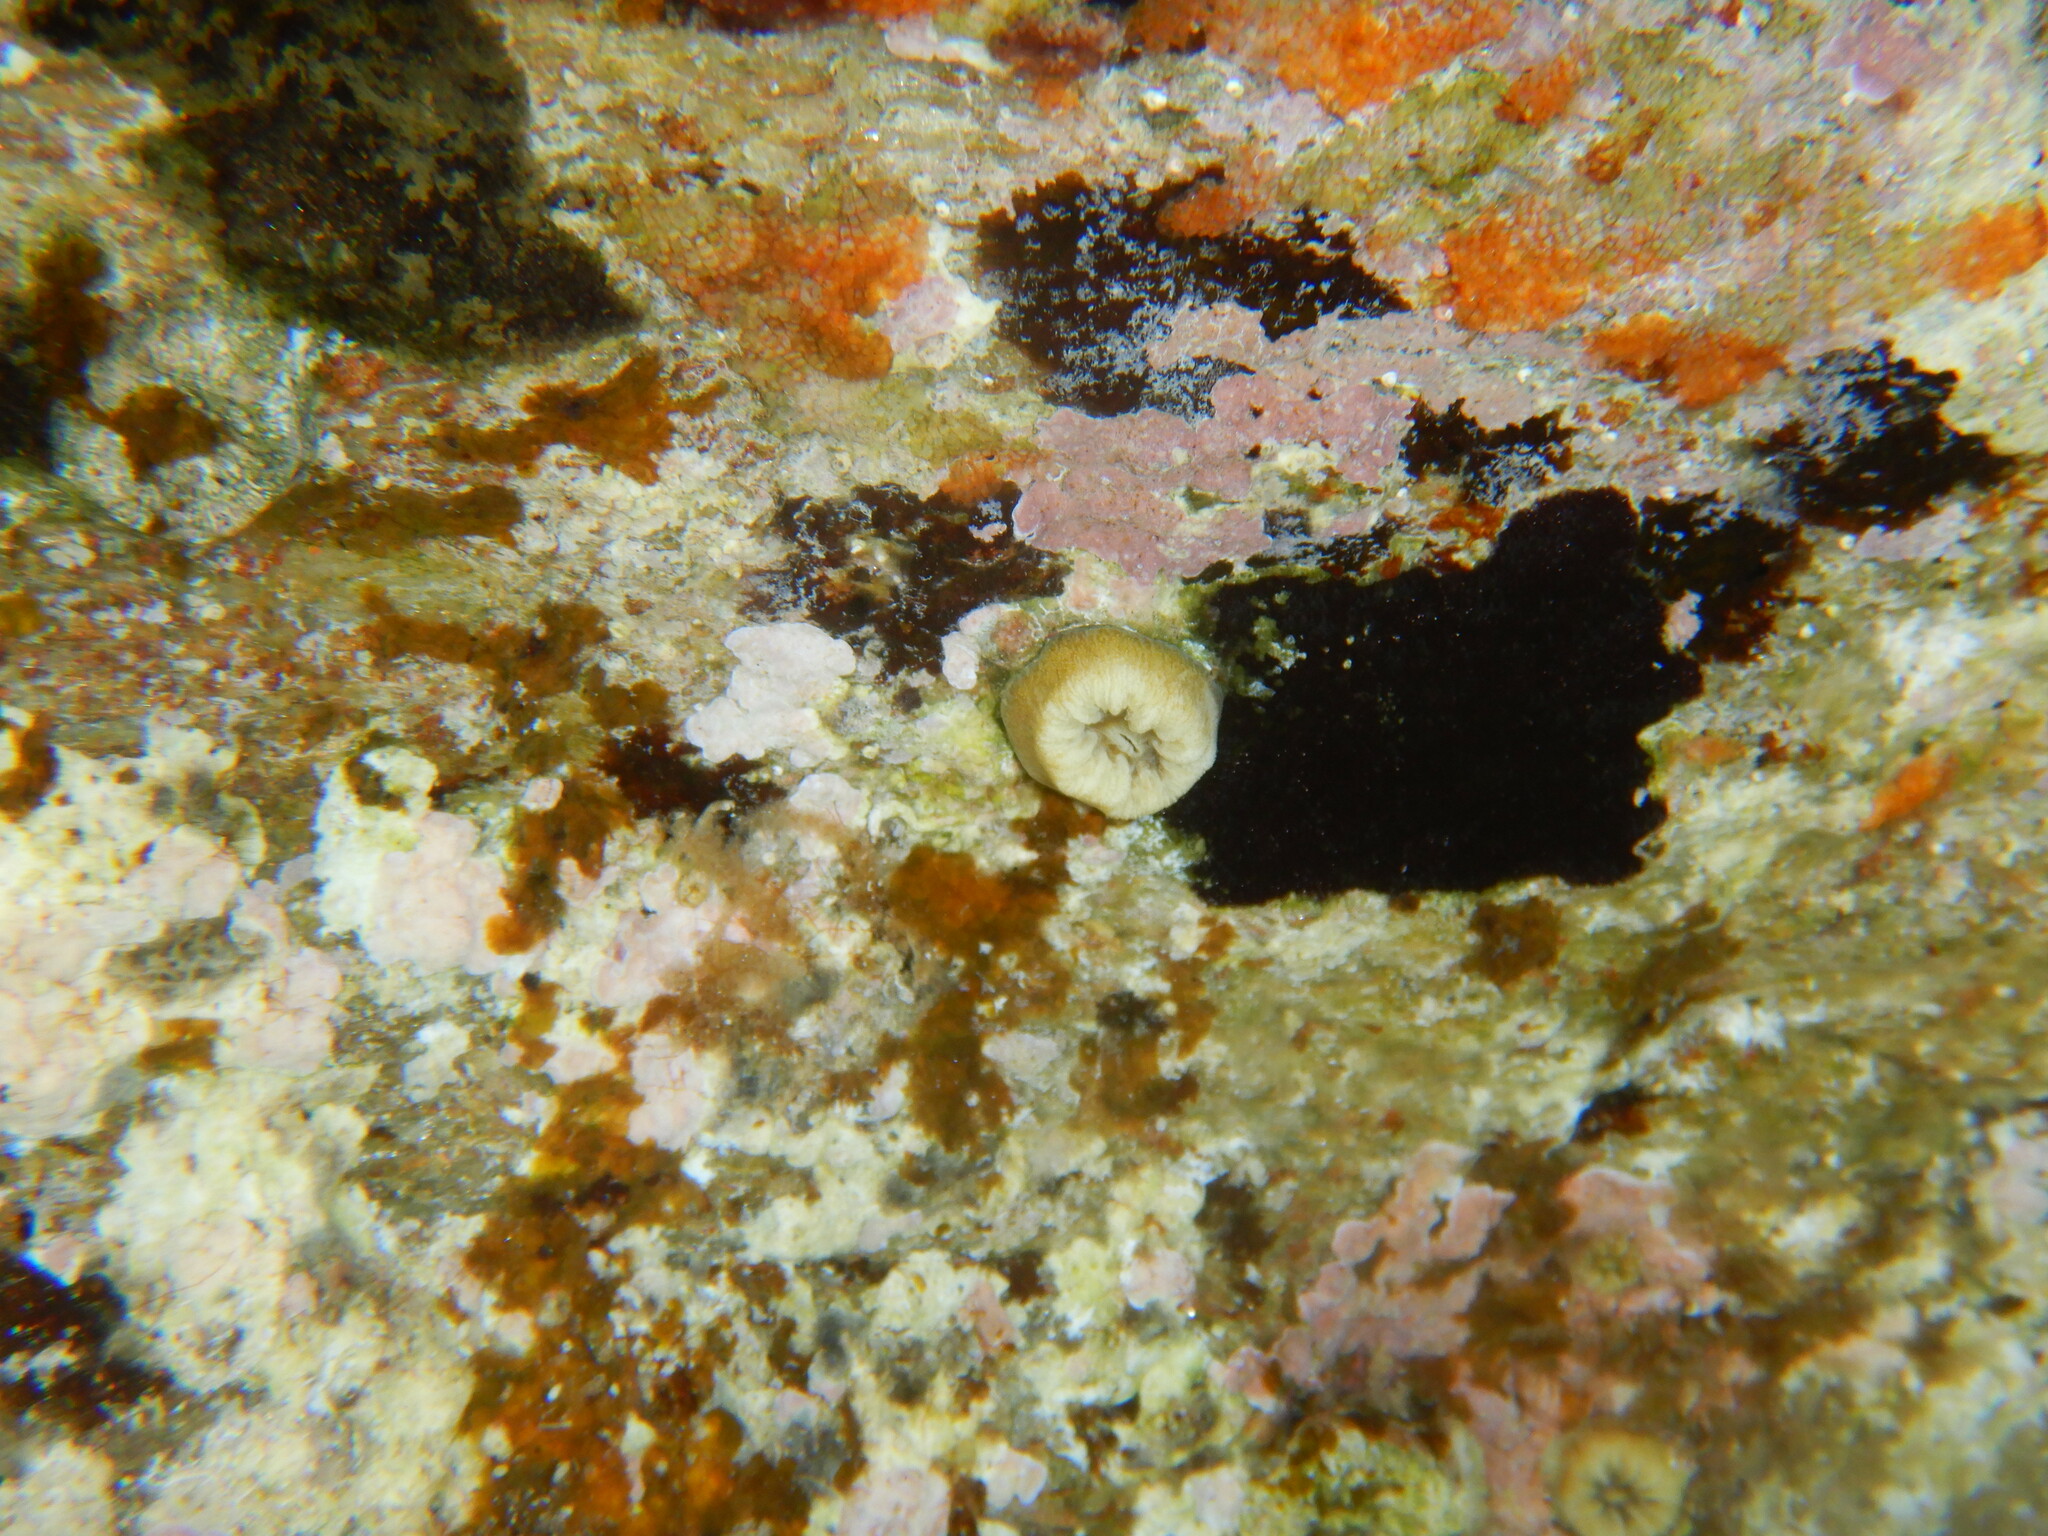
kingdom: Animalia
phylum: Cnidaria
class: Anthozoa
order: Scleractinia
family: Dendrophylliidae
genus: Balanophyllia
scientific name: Balanophyllia europaea
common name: Scarlet coral
